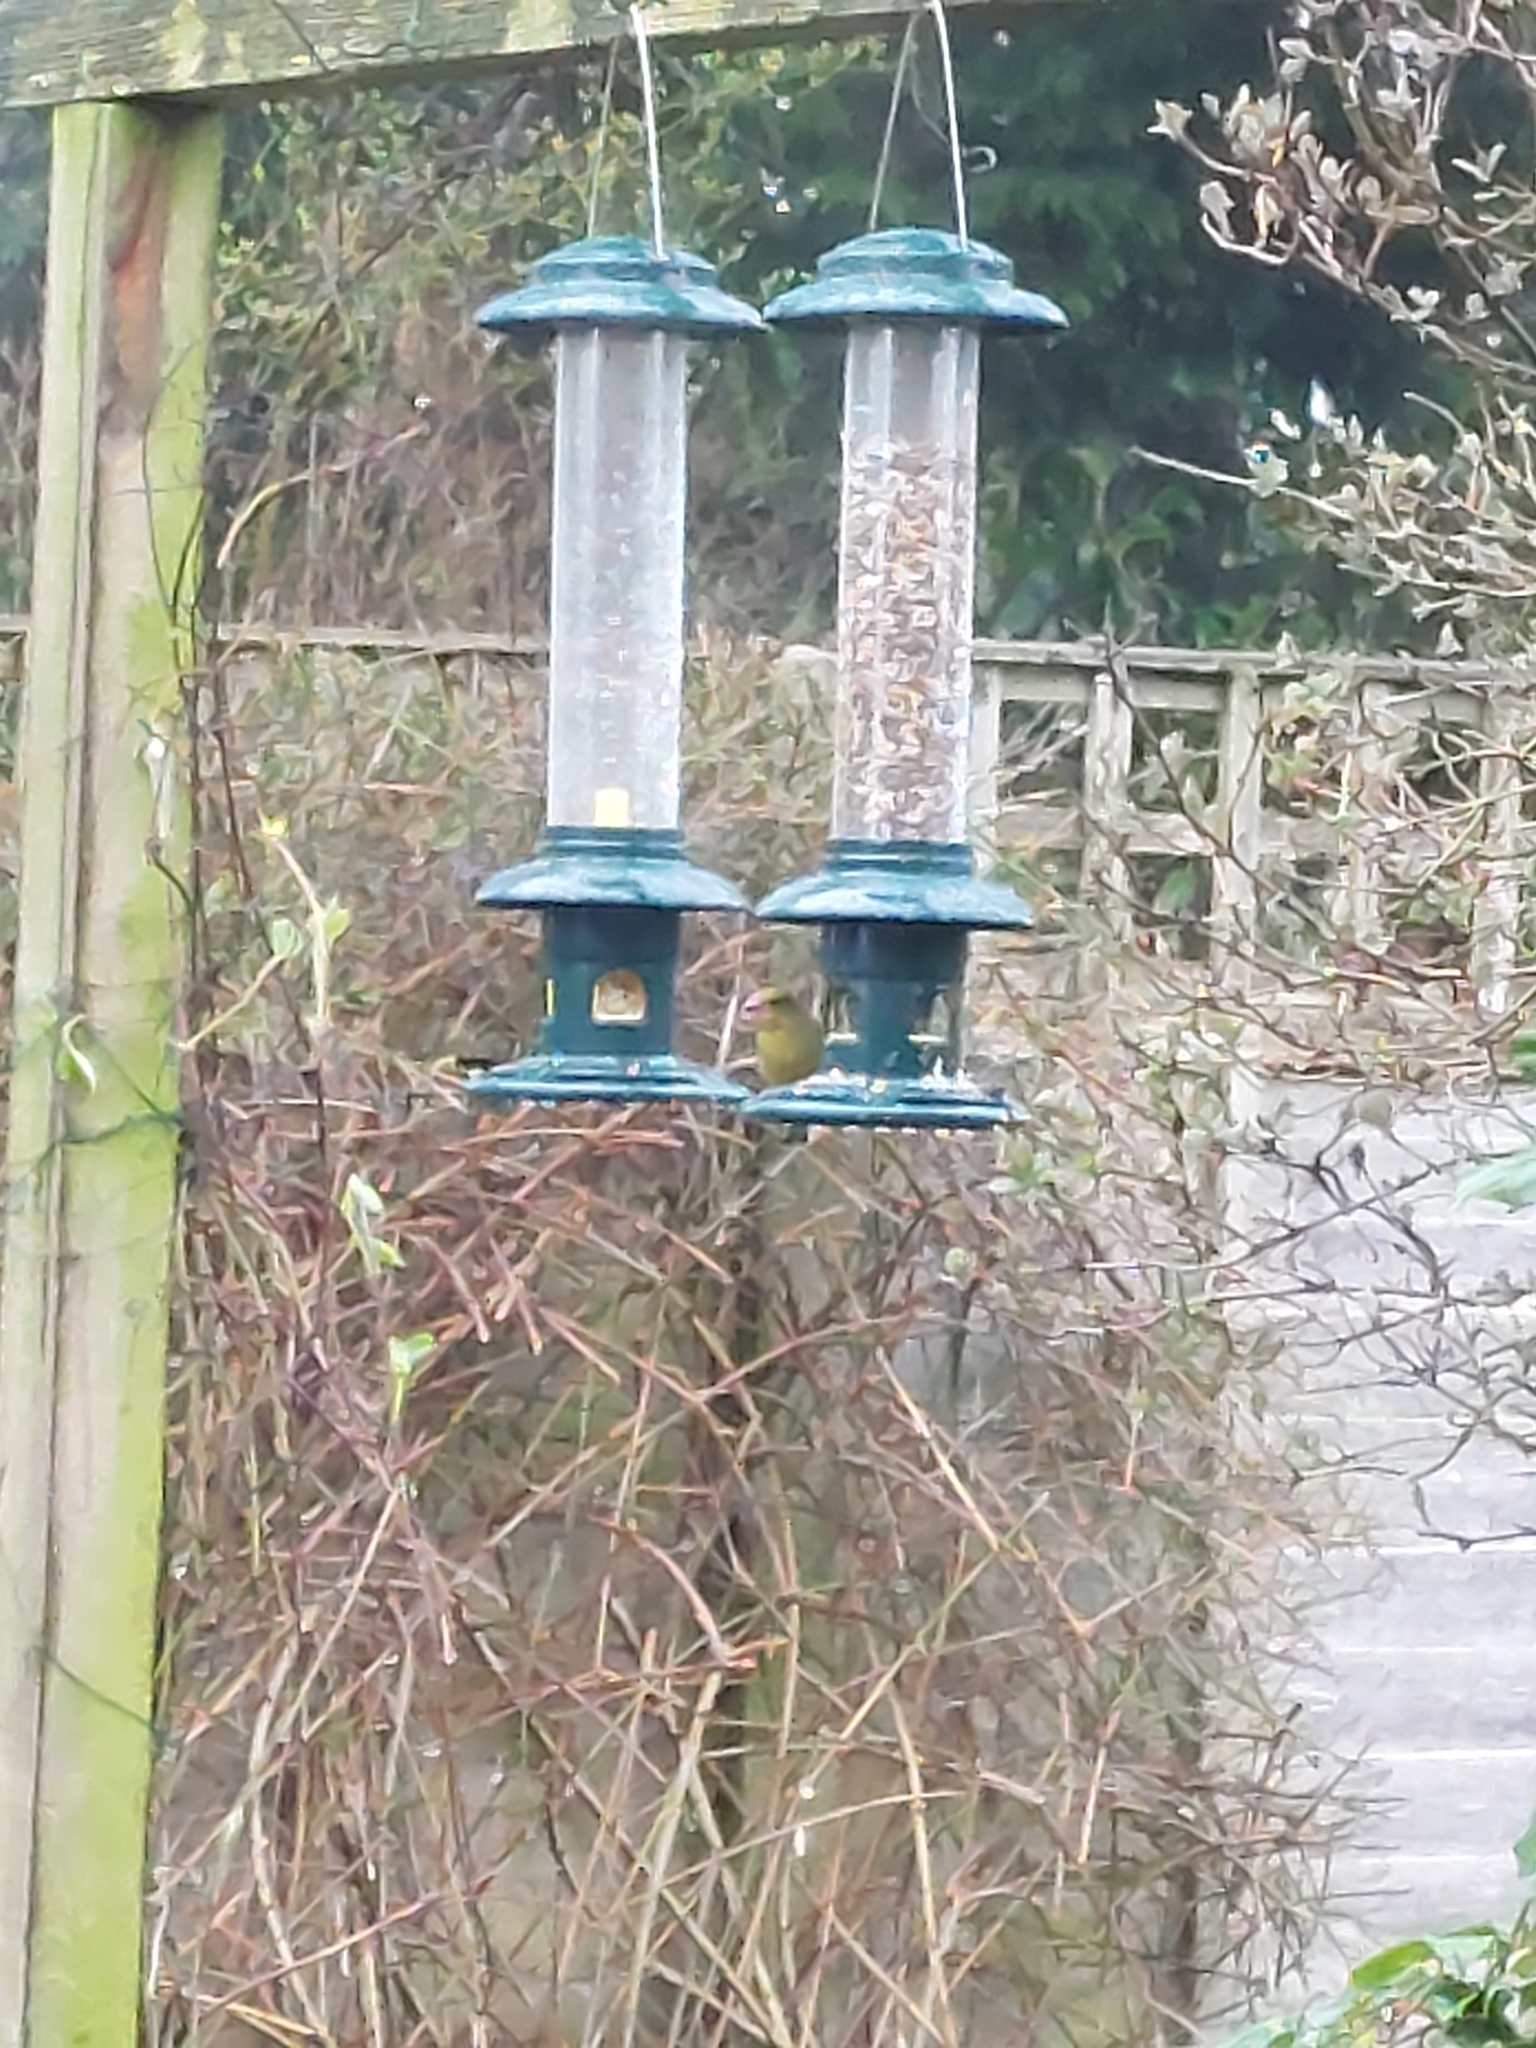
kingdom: Plantae
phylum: Tracheophyta
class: Liliopsida
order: Poales
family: Poaceae
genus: Chloris
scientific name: Chloris chloris
